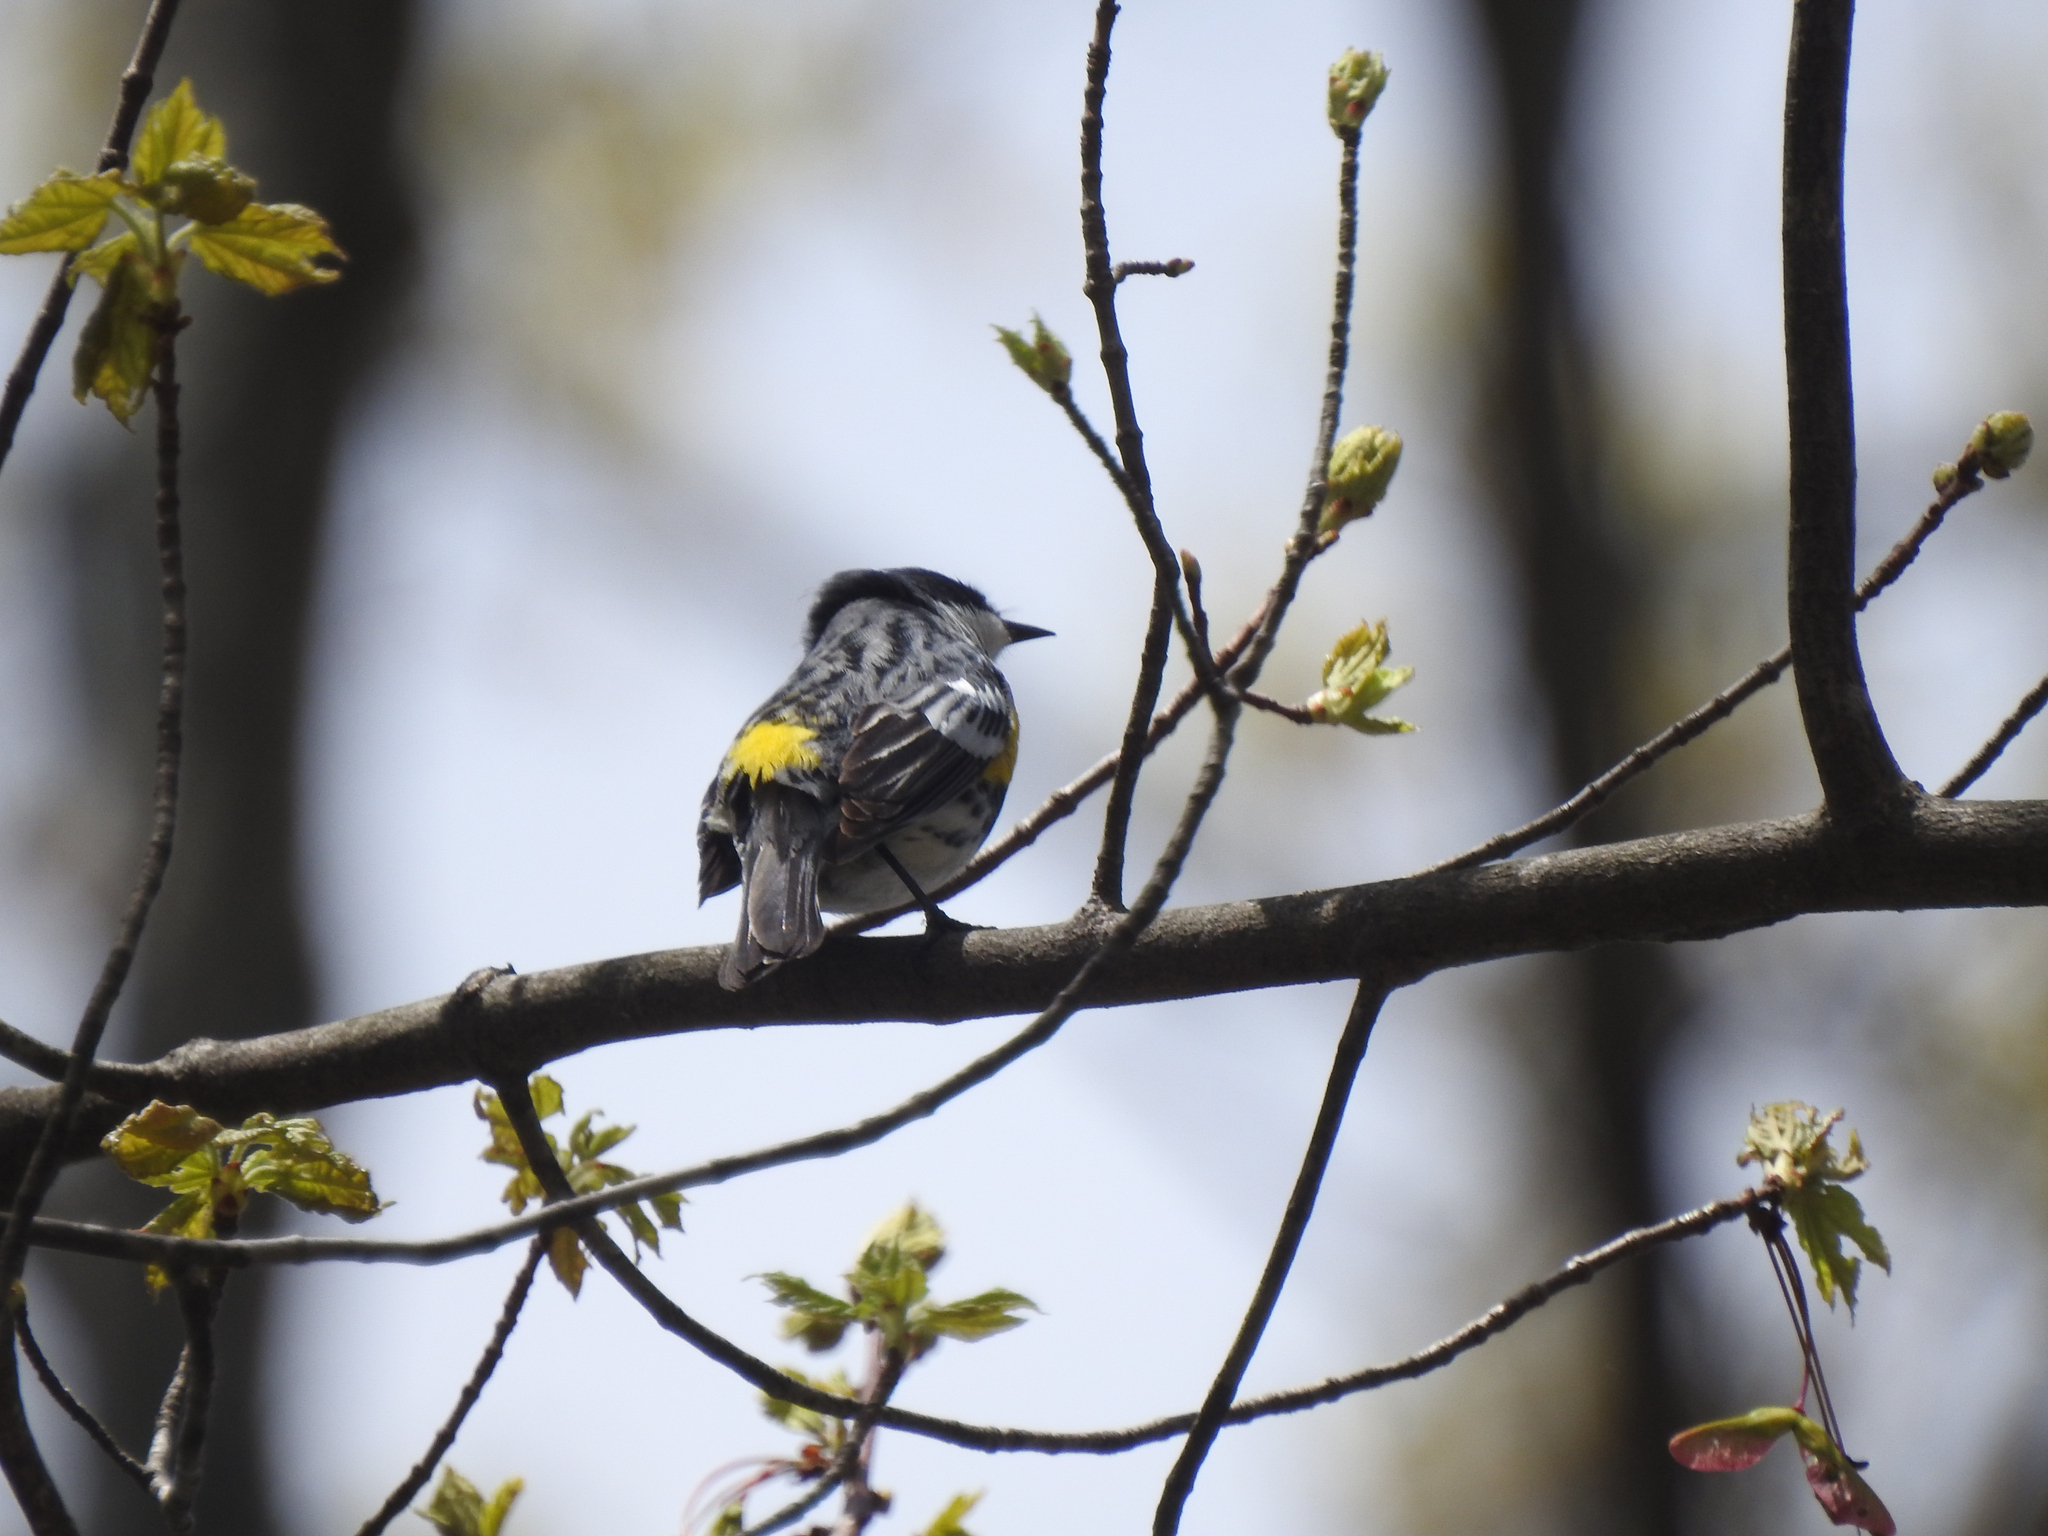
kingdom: Animalia
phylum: Chordata
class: Aves
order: Passeriformes
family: Parulidae
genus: Setophaga
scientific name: Setophaga coronata
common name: Myrtle warbler
